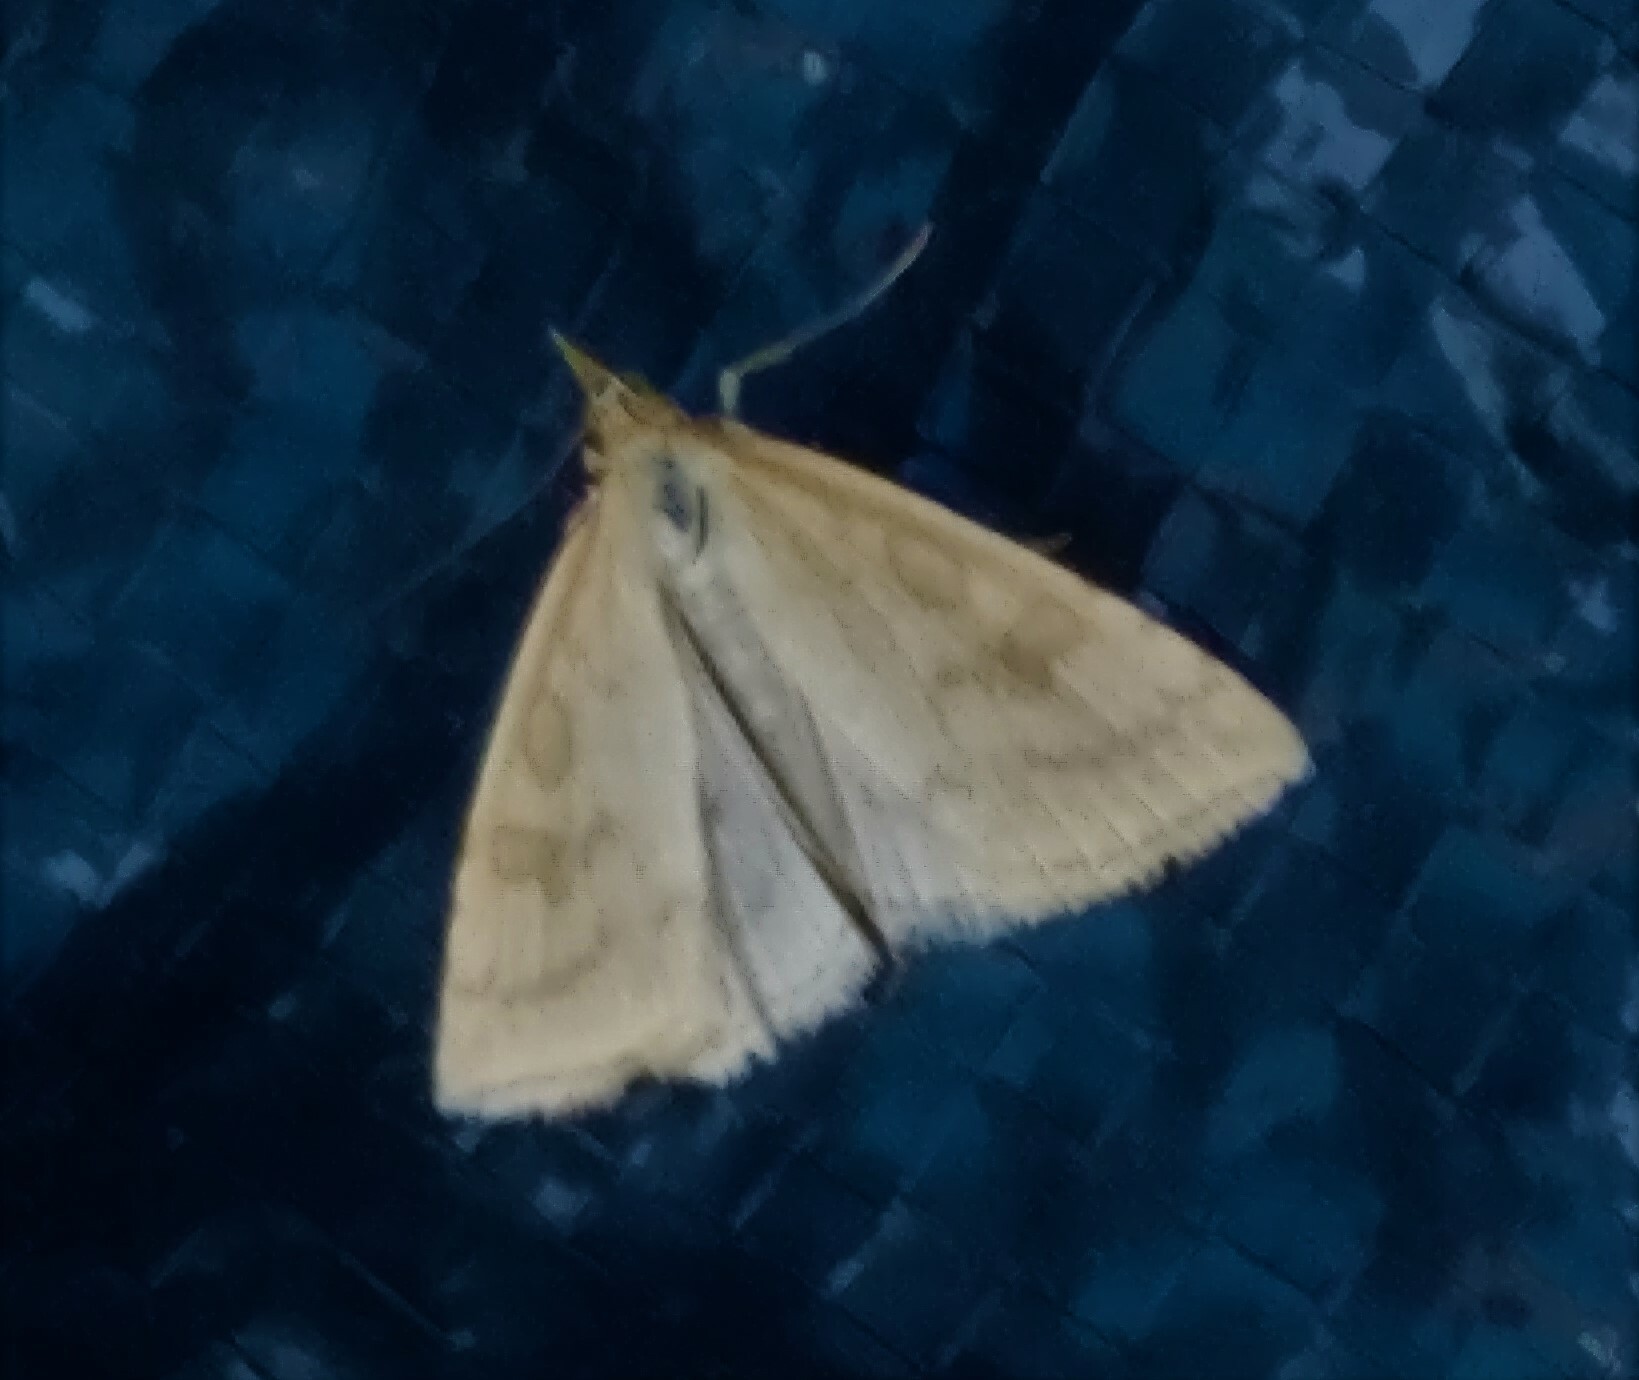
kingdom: Animalia
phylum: Arthropoda
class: Insecta
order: Lepidoptera
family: Crambidae
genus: Udea
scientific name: Udea lutealis
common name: Pale straw pearl
